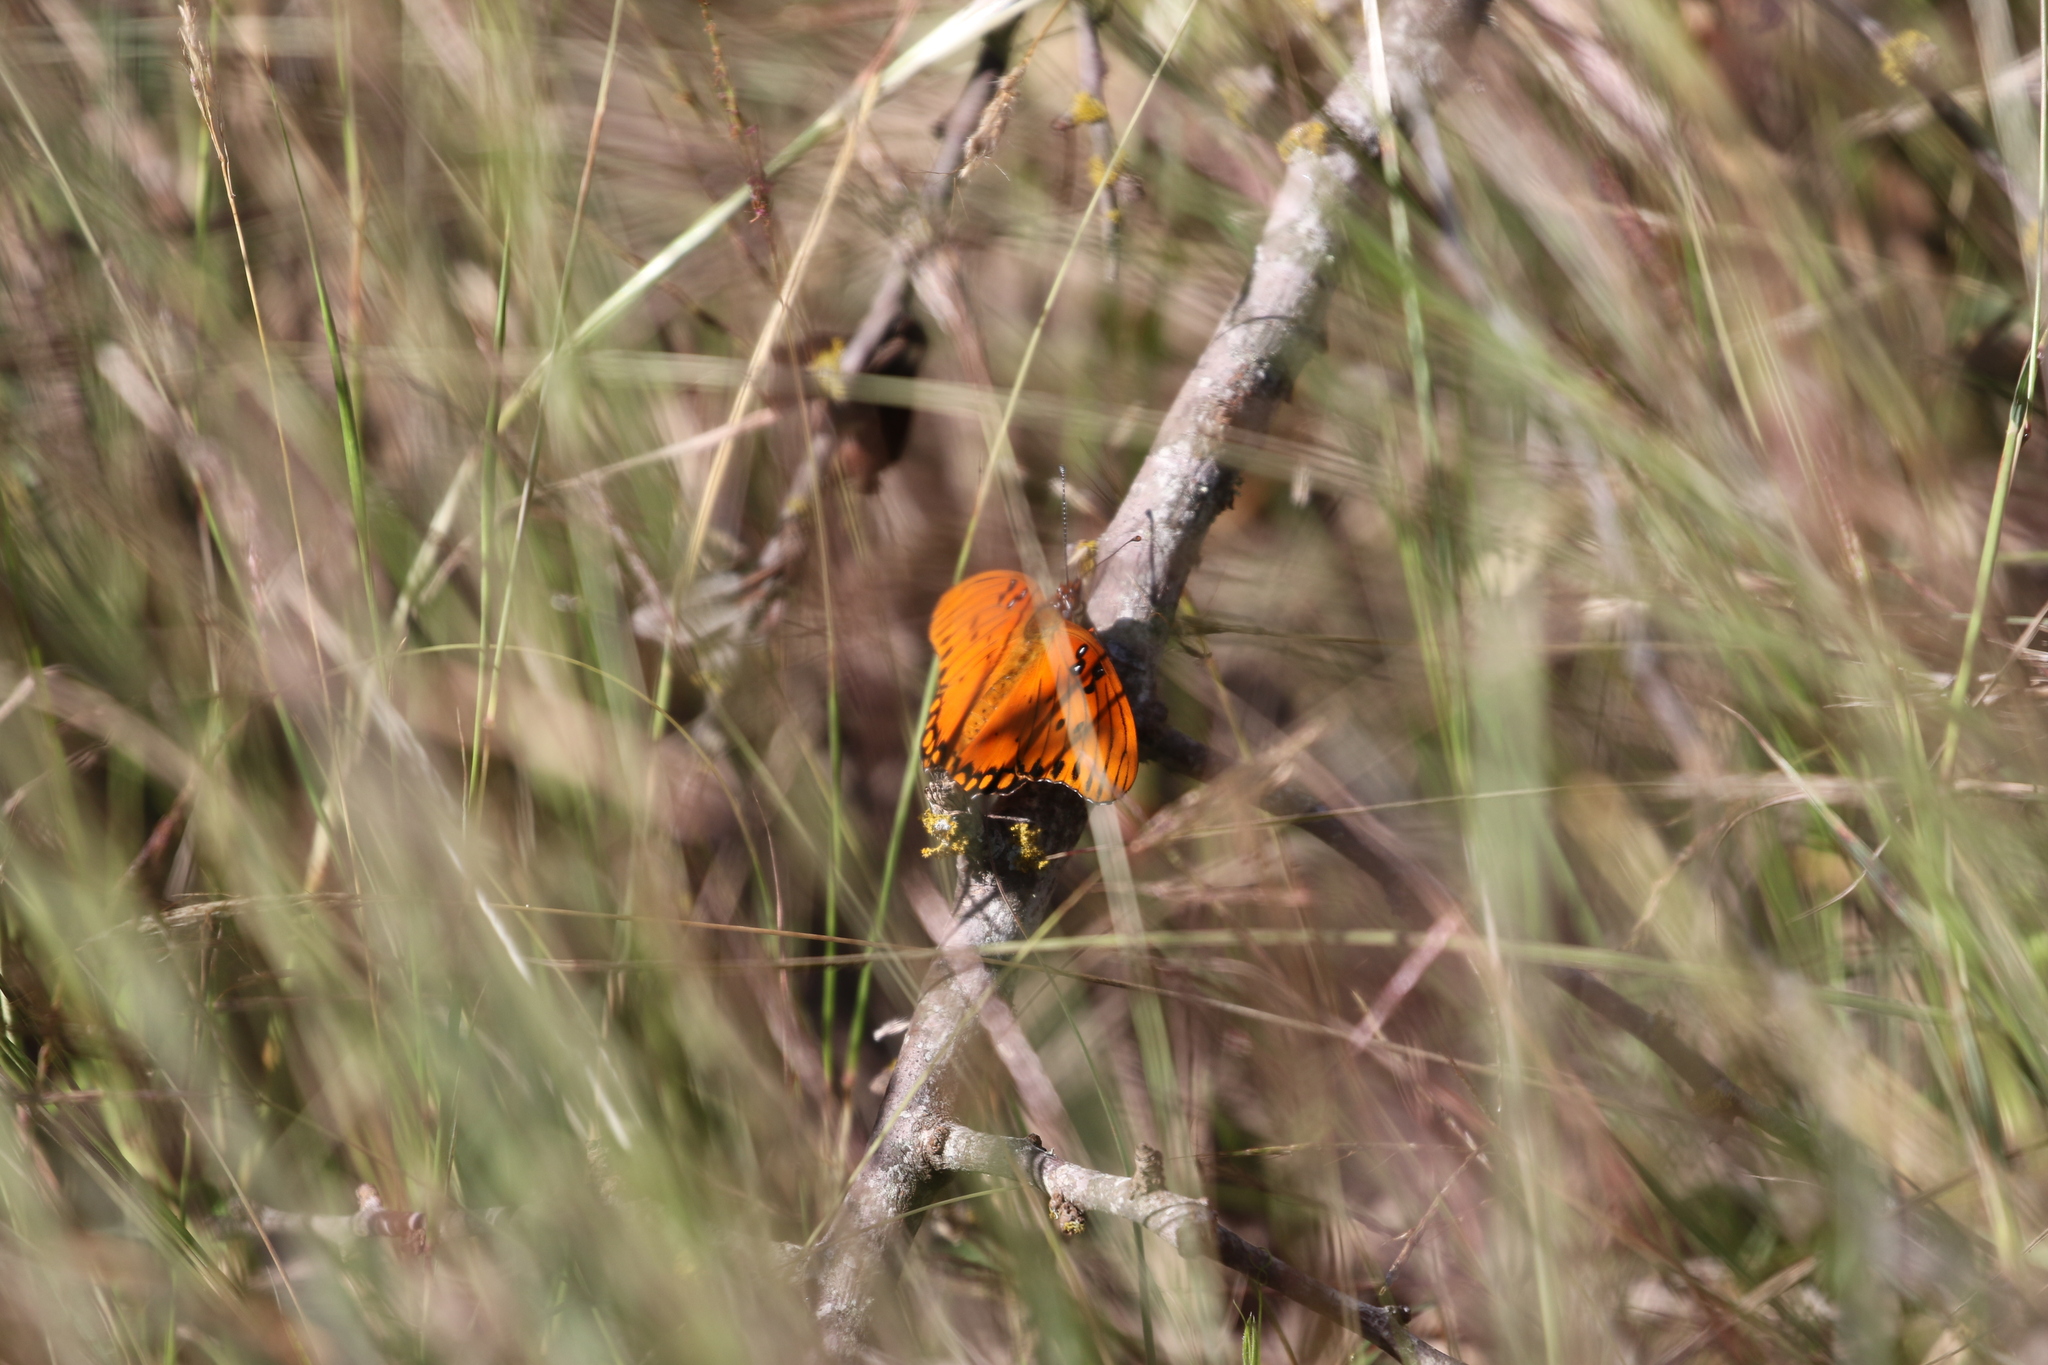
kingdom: Animalia
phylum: Arthropoda
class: Insecta
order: Lepidoptera
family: Nymphalidae
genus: Dione
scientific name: Dione vanillae
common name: Gulf fritillary
